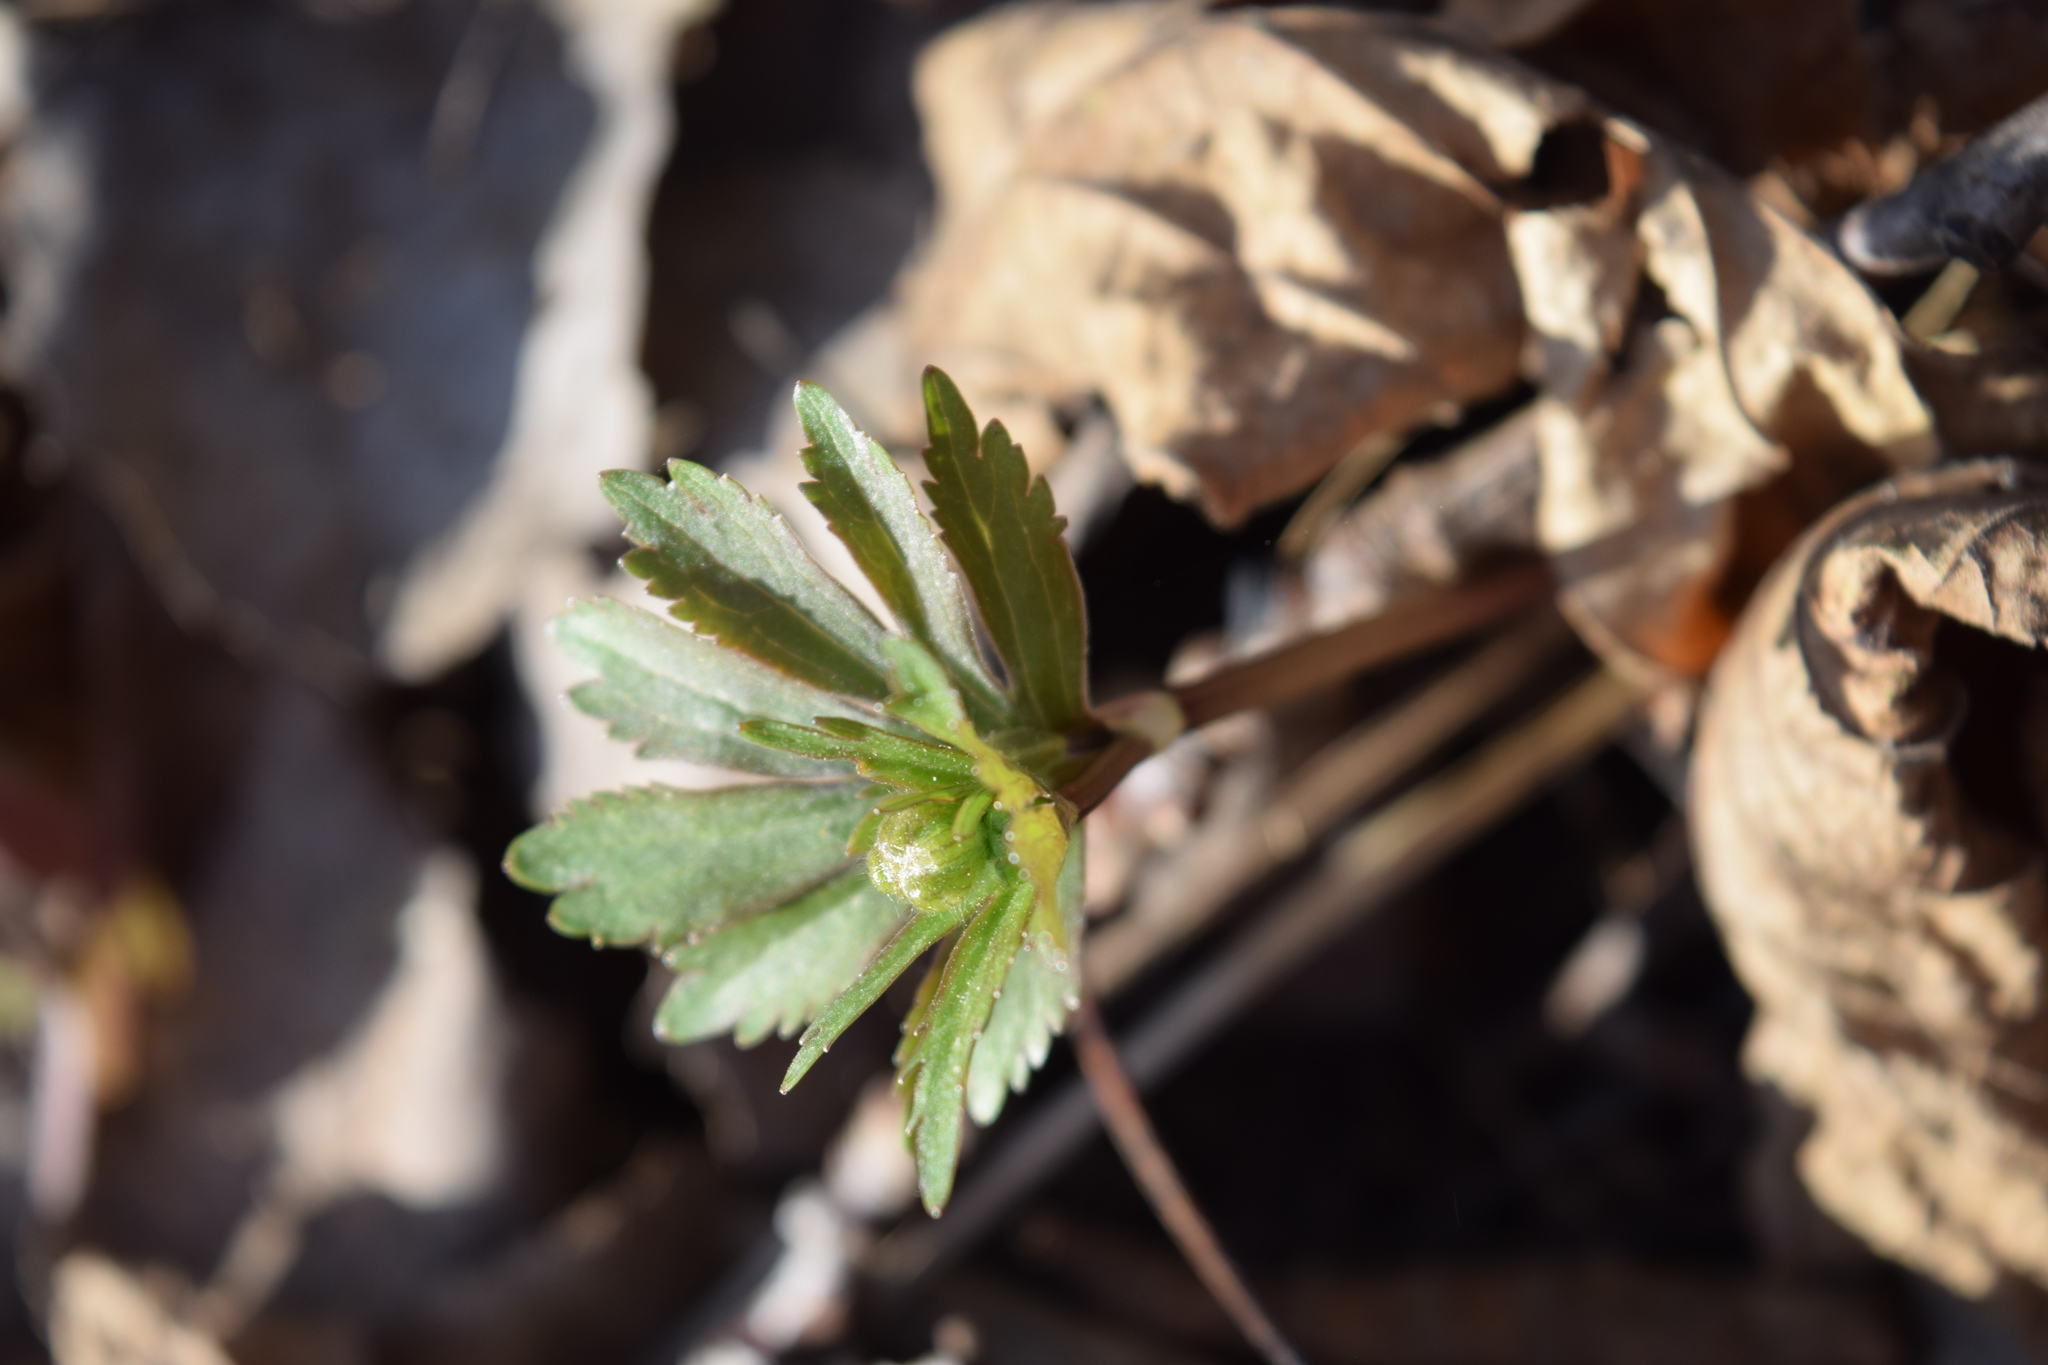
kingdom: Plantae
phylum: Tracheophyta
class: Magnoliopsida
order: Ranunculales
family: Ranunculaceae
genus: Ranunculus
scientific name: Ranunculus cassubicus
